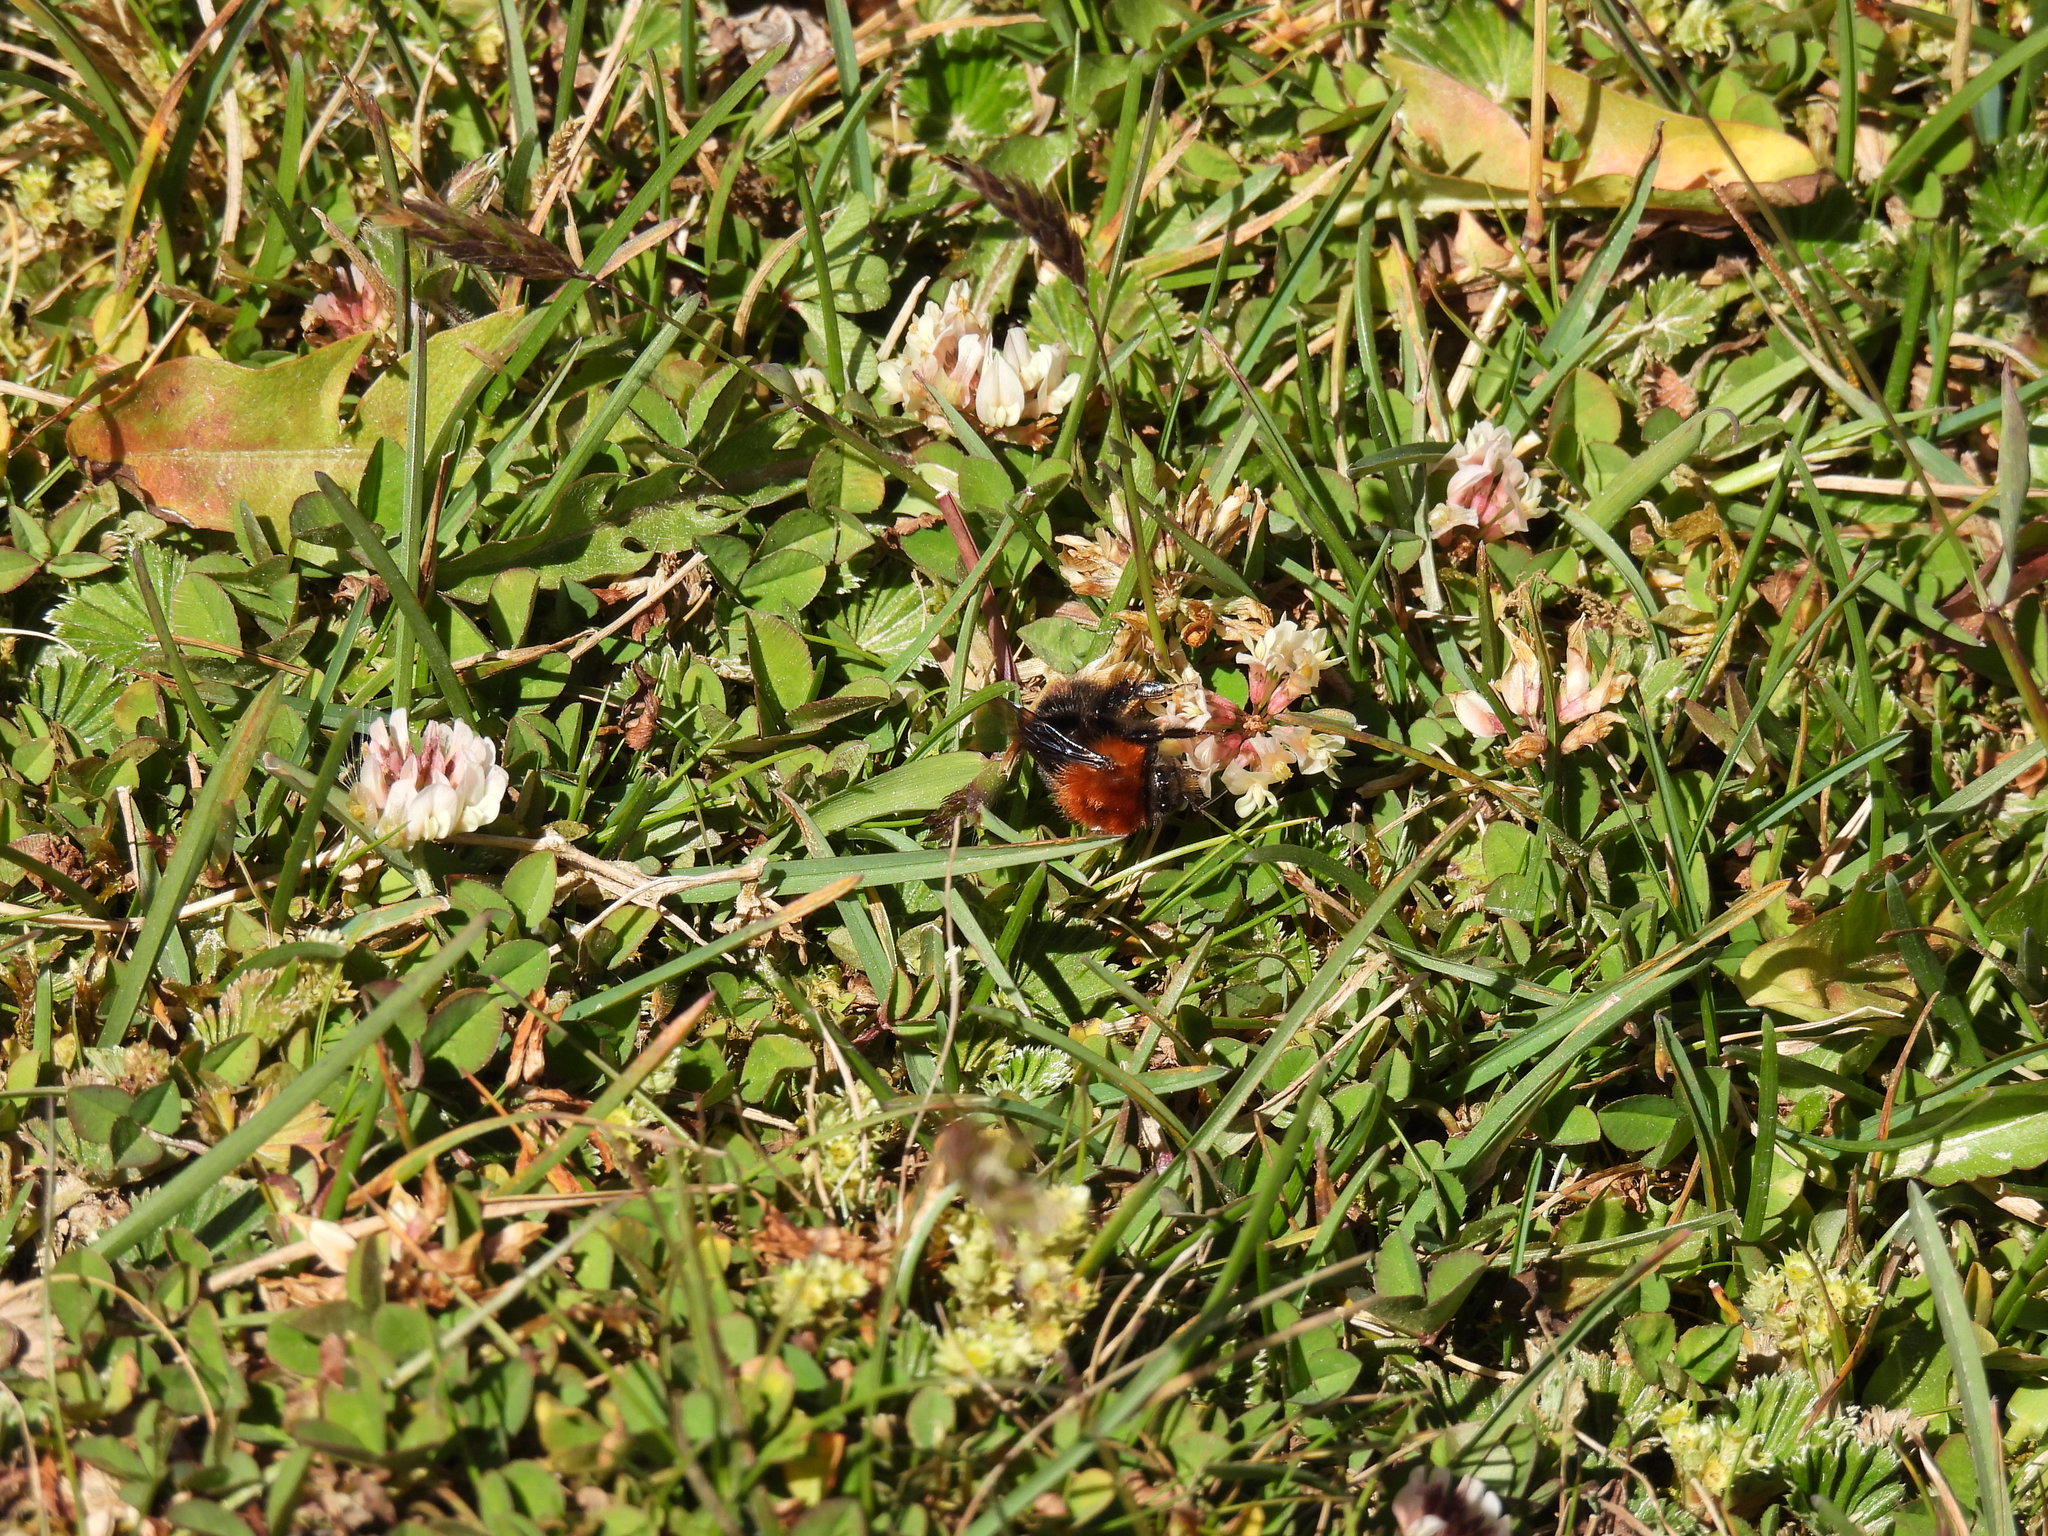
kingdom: Animalia
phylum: Arthropoda
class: Insecta
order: Hymenoptera
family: Apidae
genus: Bombus
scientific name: Bombus rubicundus
